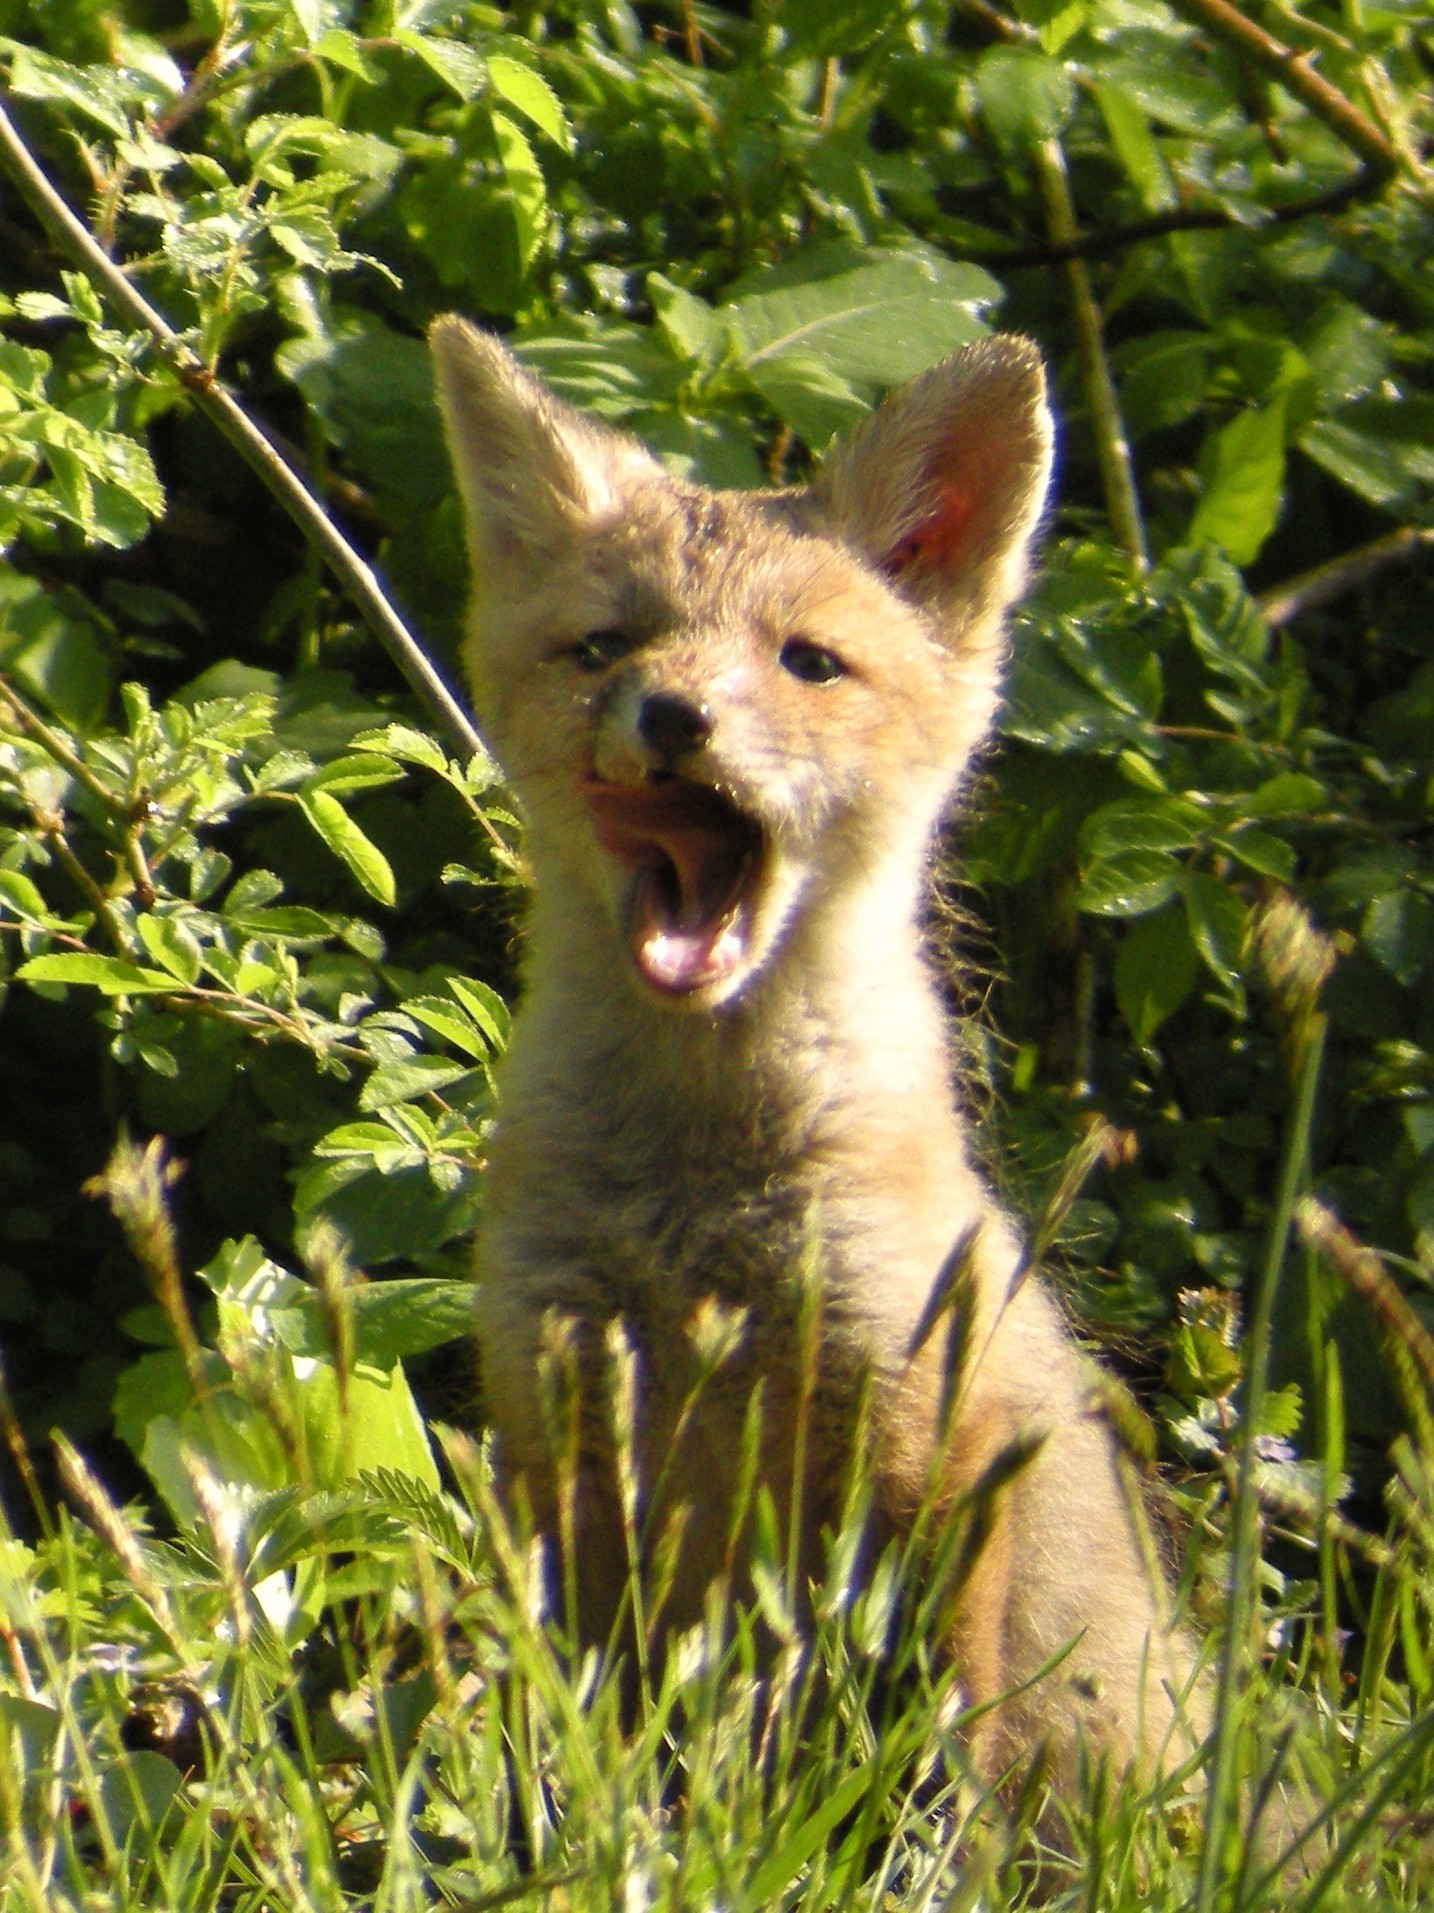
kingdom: Animalia
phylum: Chordata
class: Mammalia
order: Carnivora
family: Canidae
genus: Vulpes
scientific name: Vulpes vulpes
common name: Red fox
